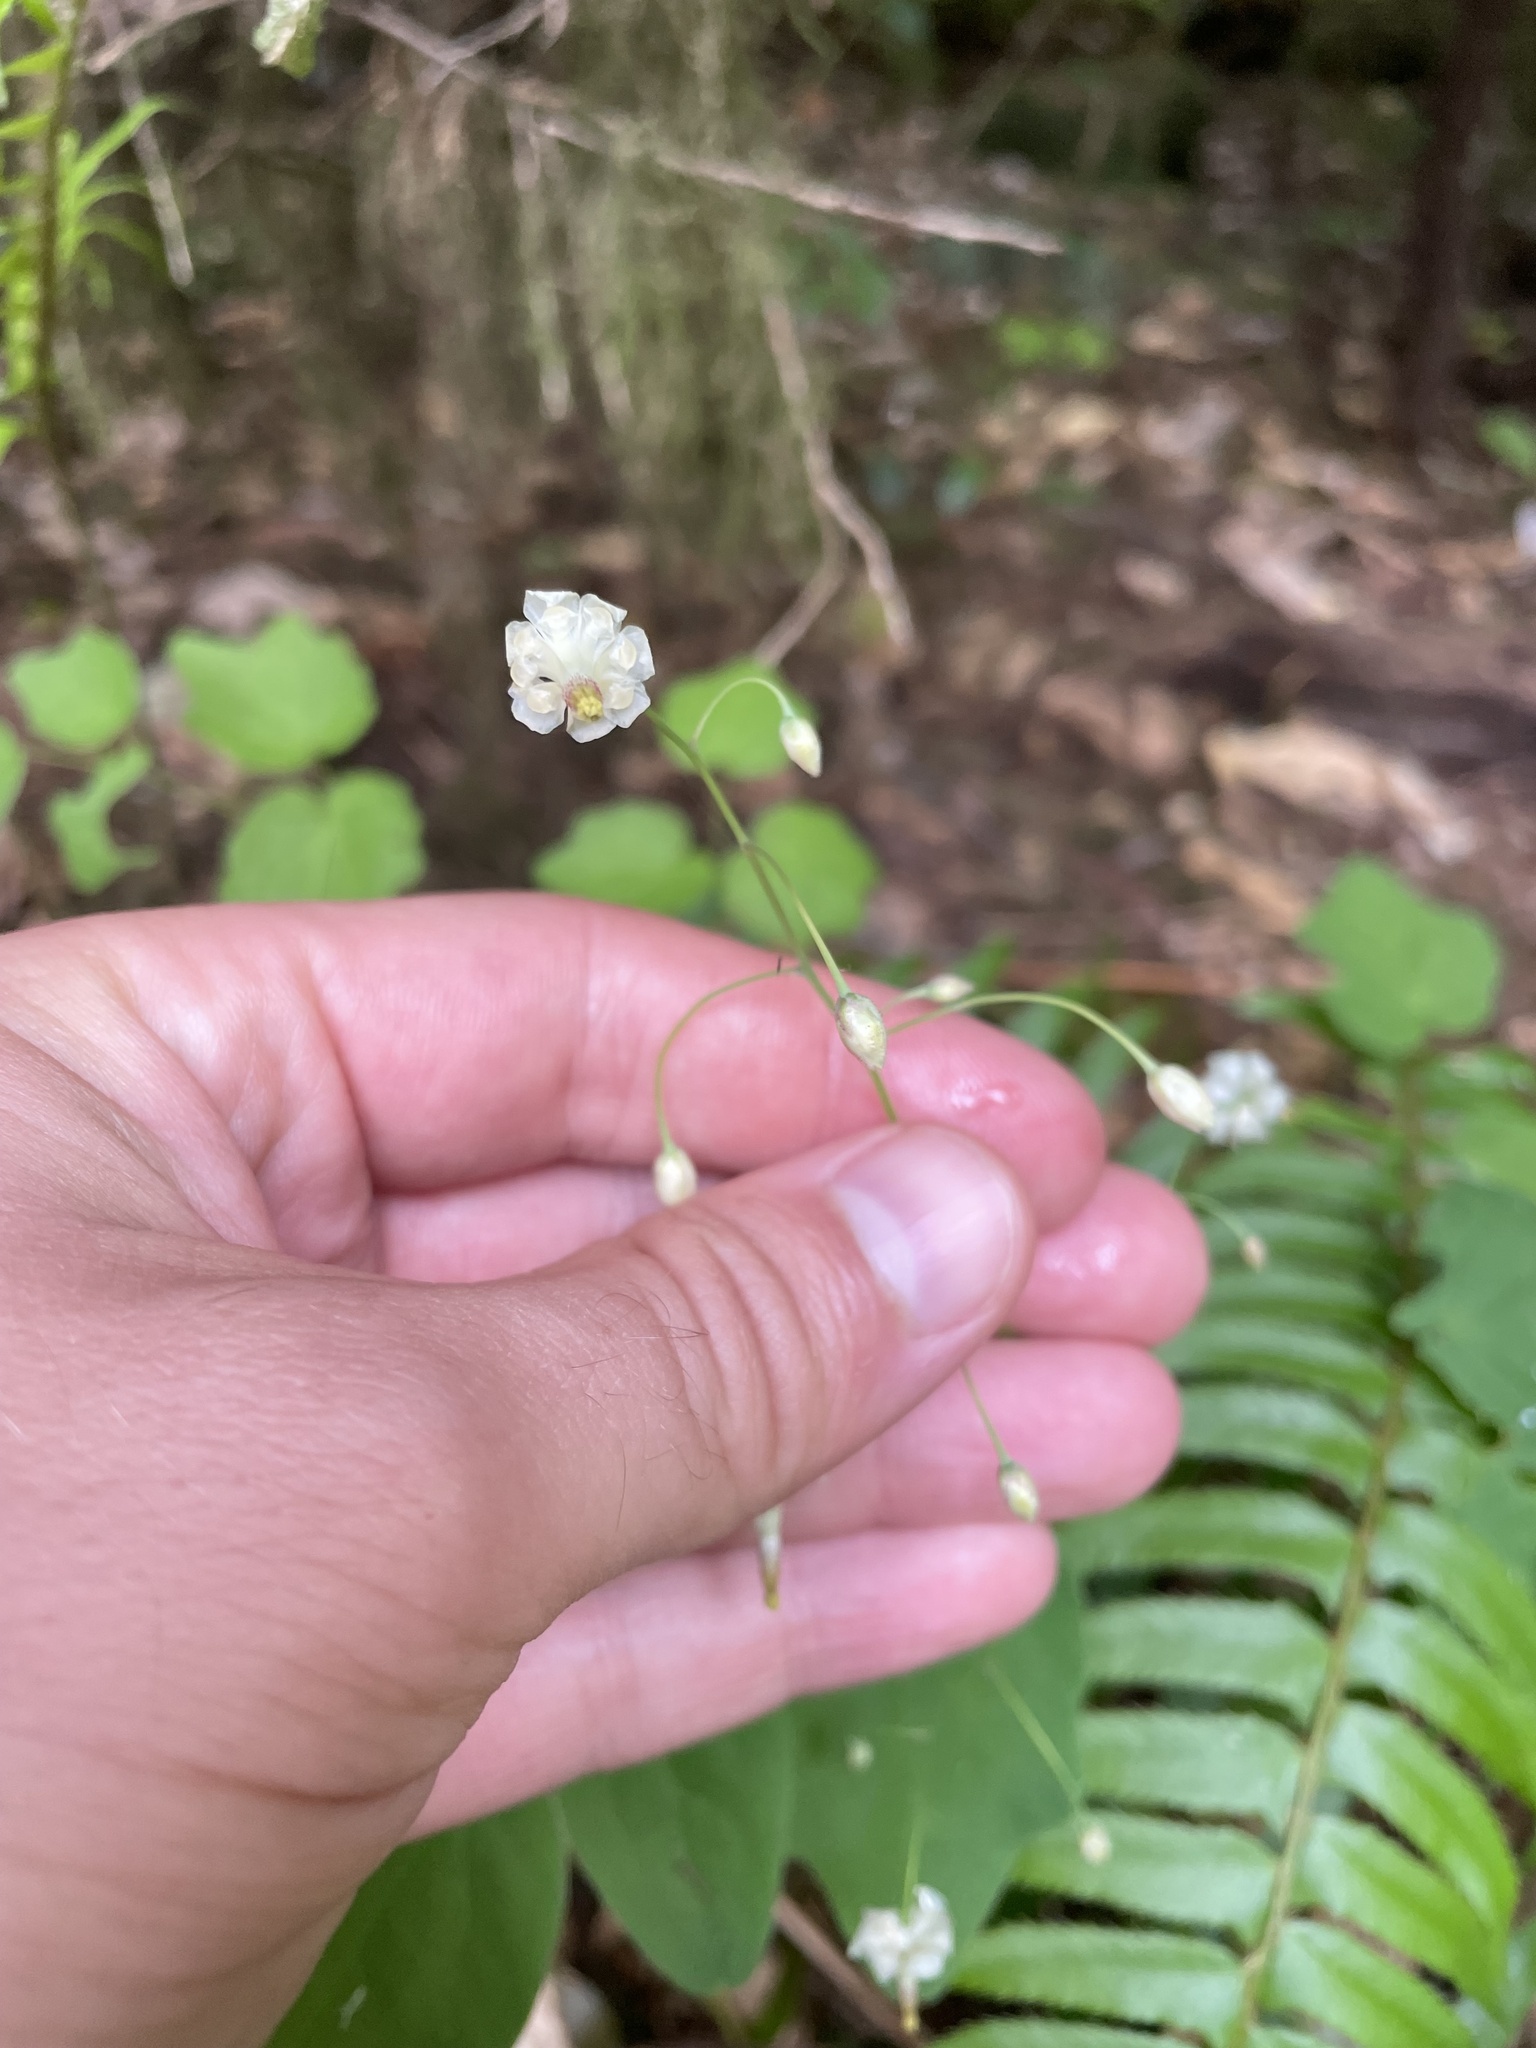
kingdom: Plantae
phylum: Tracheophyta
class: Magnoliopsida
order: Ranunculales
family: Berberidaceae
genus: Vancouveria
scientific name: Vancouveria hexandra
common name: Northern inside-out-flower
